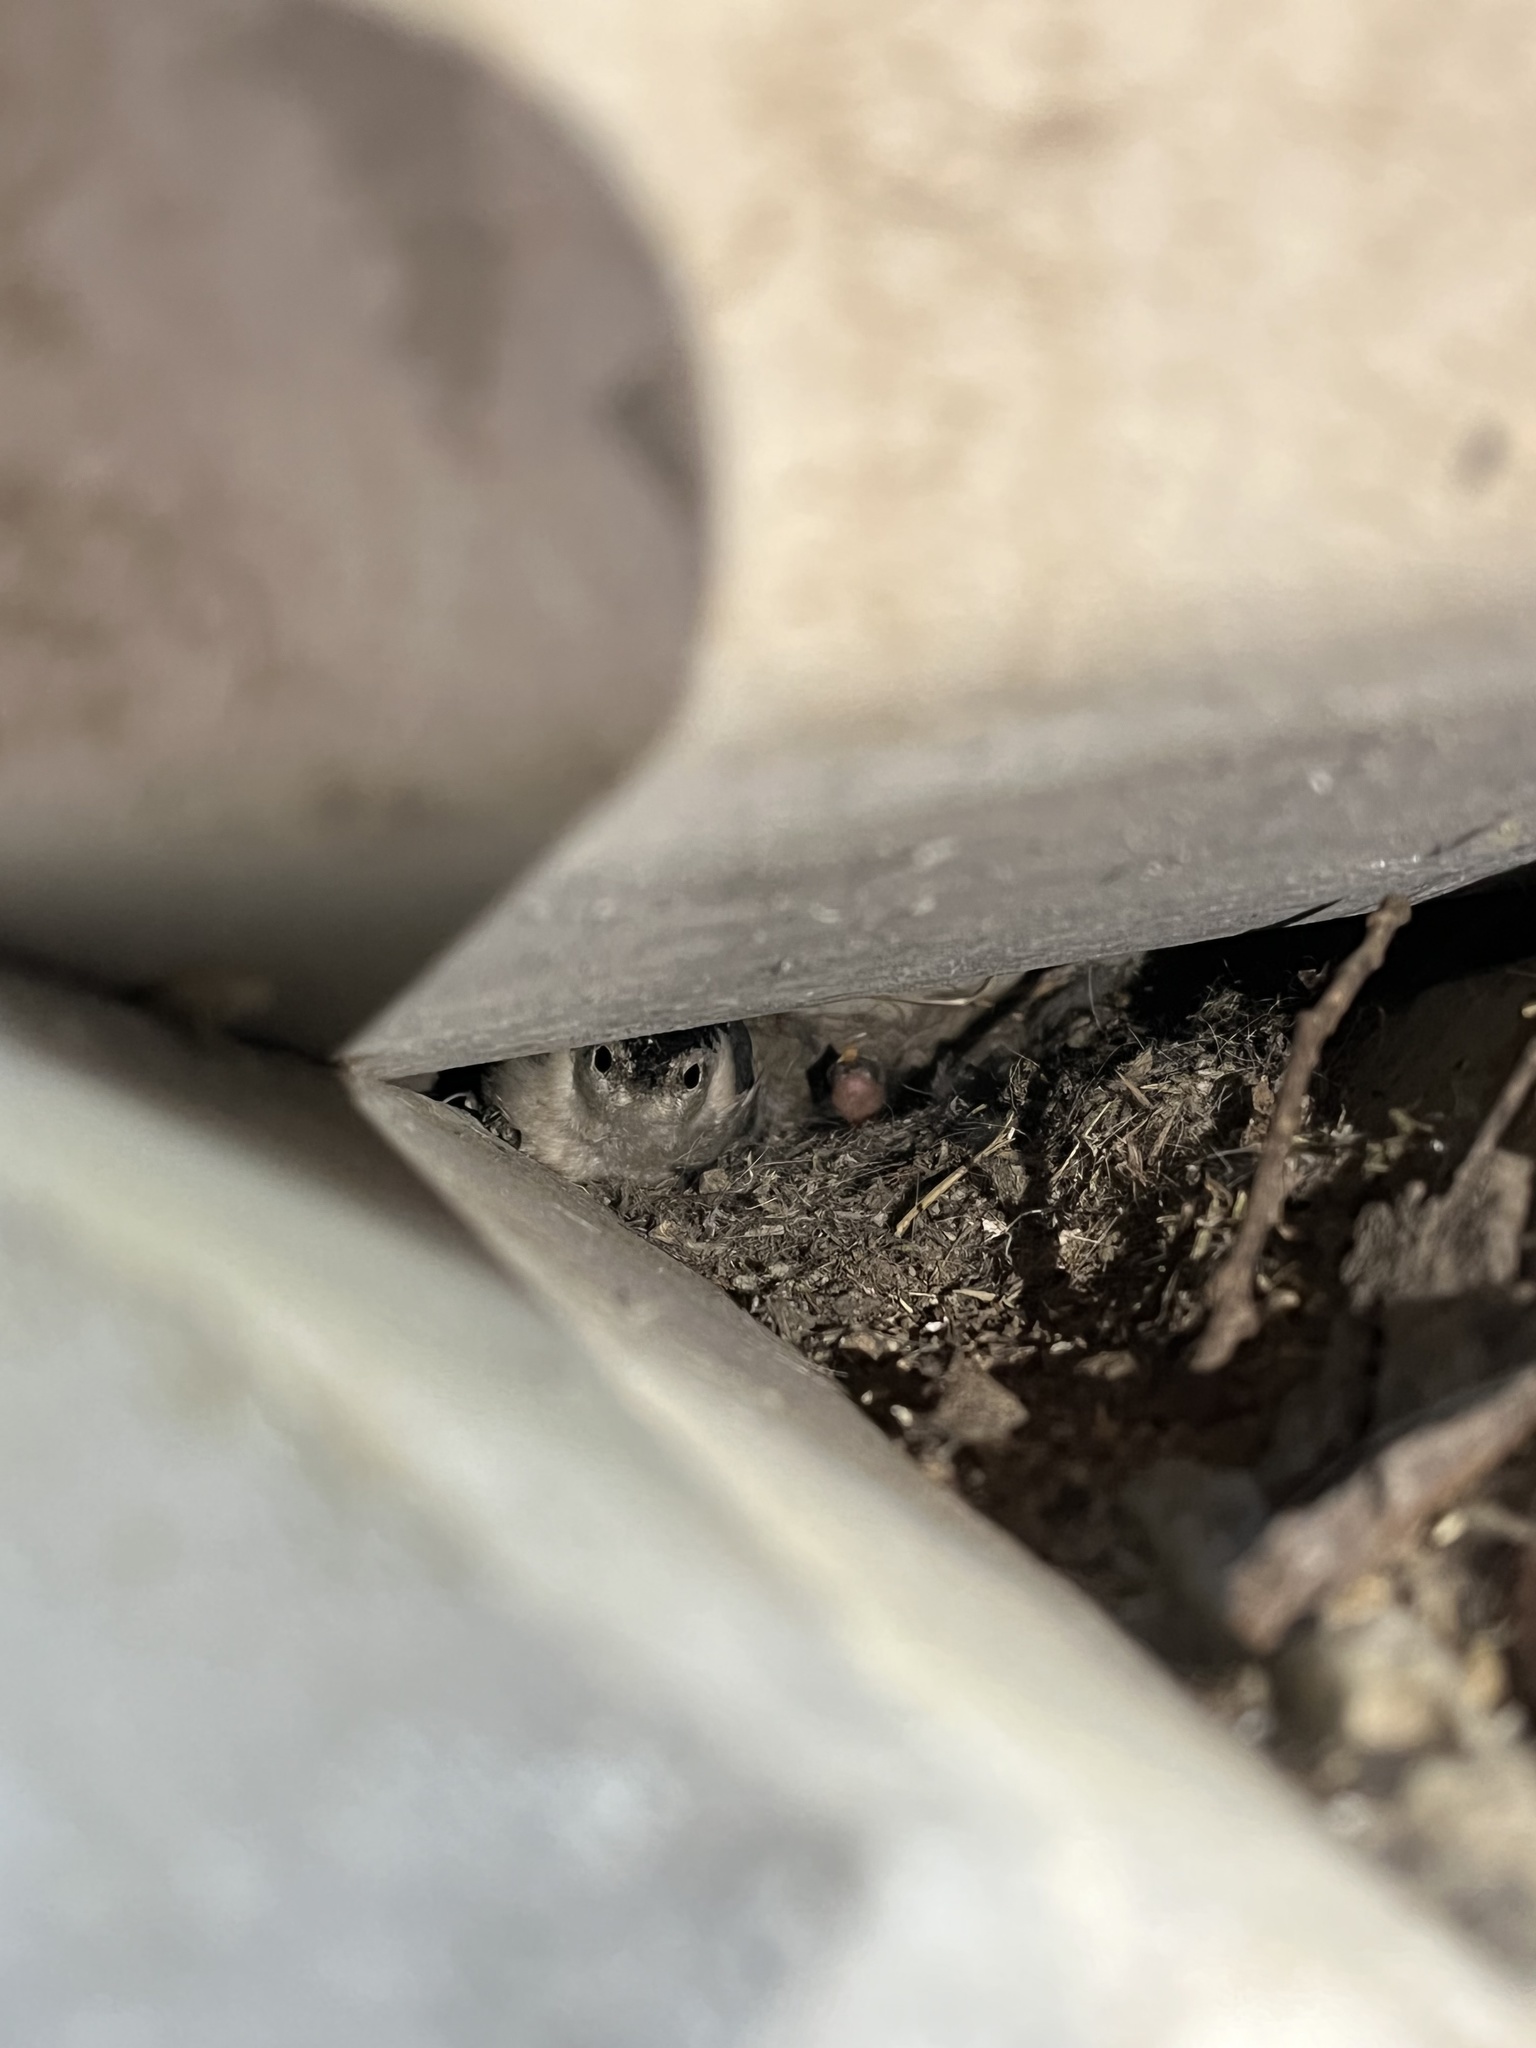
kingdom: Animalia
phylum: Chordata
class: Aves
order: Passeriformes
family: Sittidae
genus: Sitta
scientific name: Sitta carolinensis
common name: White-breasted nuthatch
